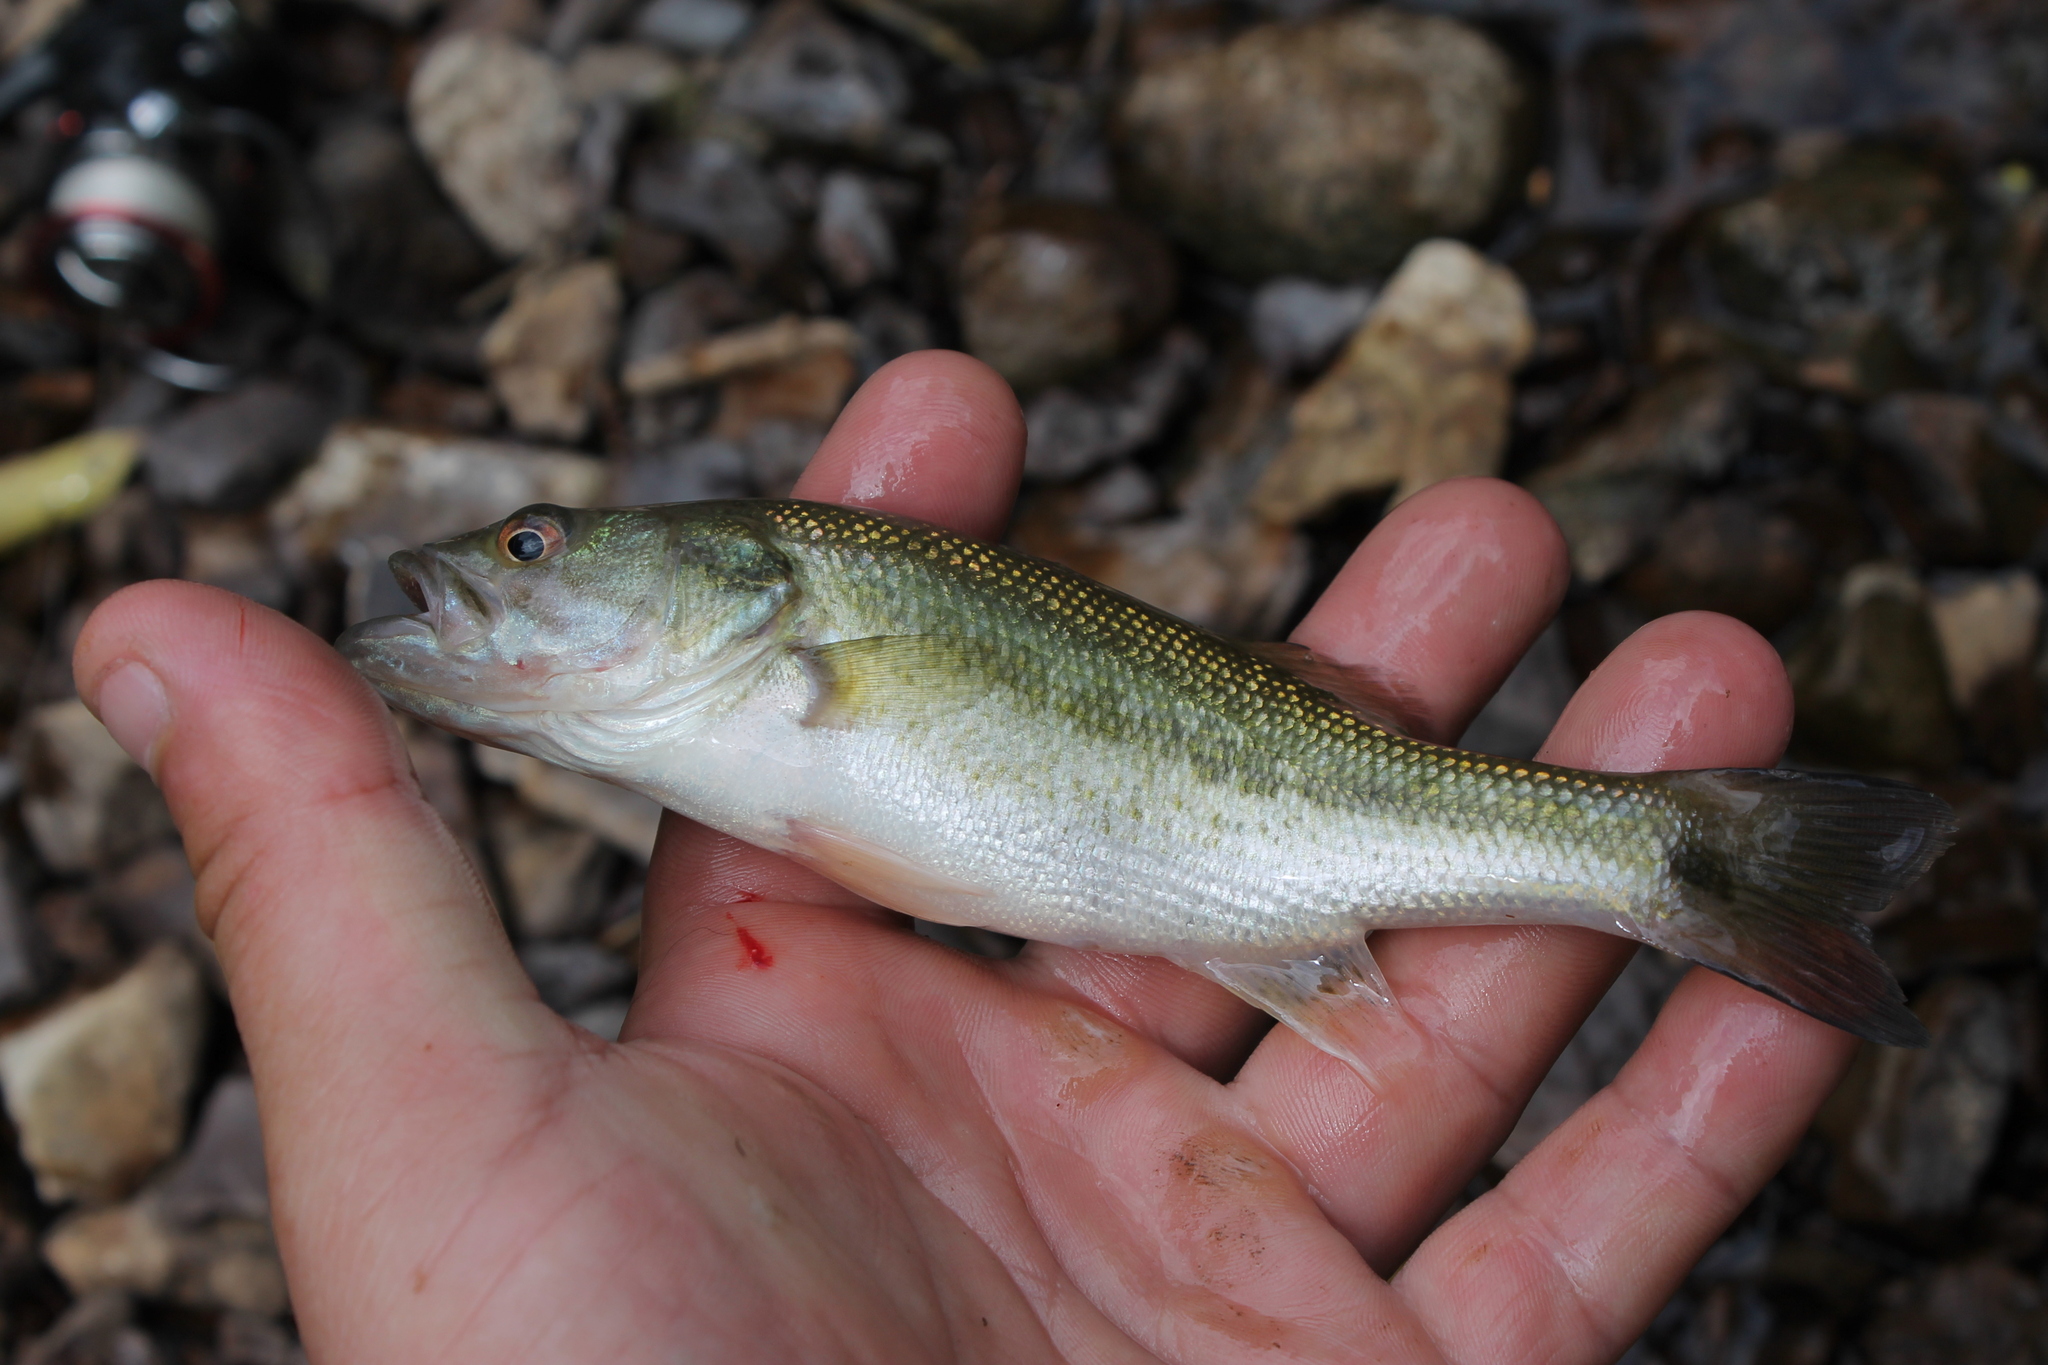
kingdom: Animalia
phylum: Chordata
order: Perciformes
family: Centrarchidae
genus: Micropterus
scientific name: Micropterus punctulatus
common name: Spotted bass
